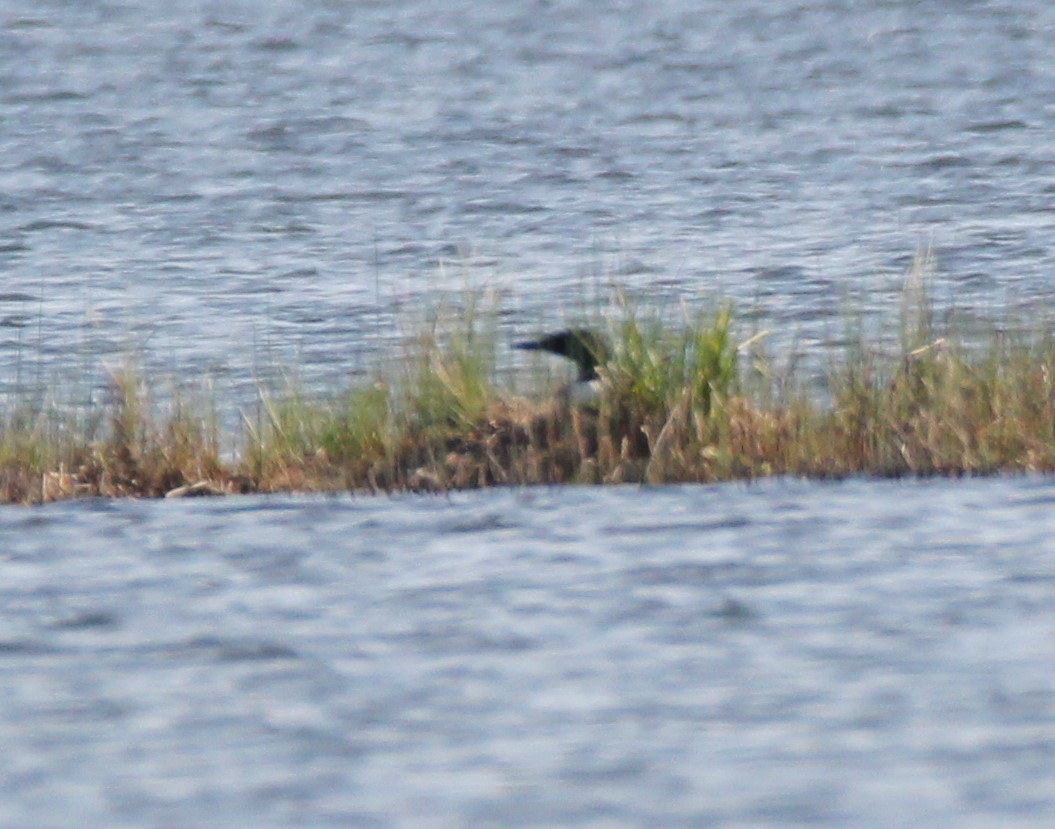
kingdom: Animalia
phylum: Chordata
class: Aves
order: Gaviiformes
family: Gaviidae
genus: Gavia
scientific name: Gavia immer
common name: Common loon
